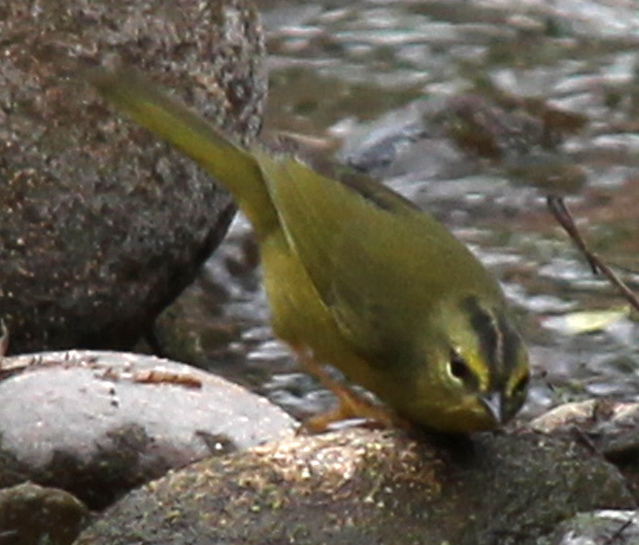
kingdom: Animalia
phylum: Chordata
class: Aves
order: Passeriformes
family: Parulidae
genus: Myiothlypis
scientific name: Myiothlypis bivittata
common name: Two-banded warbler
